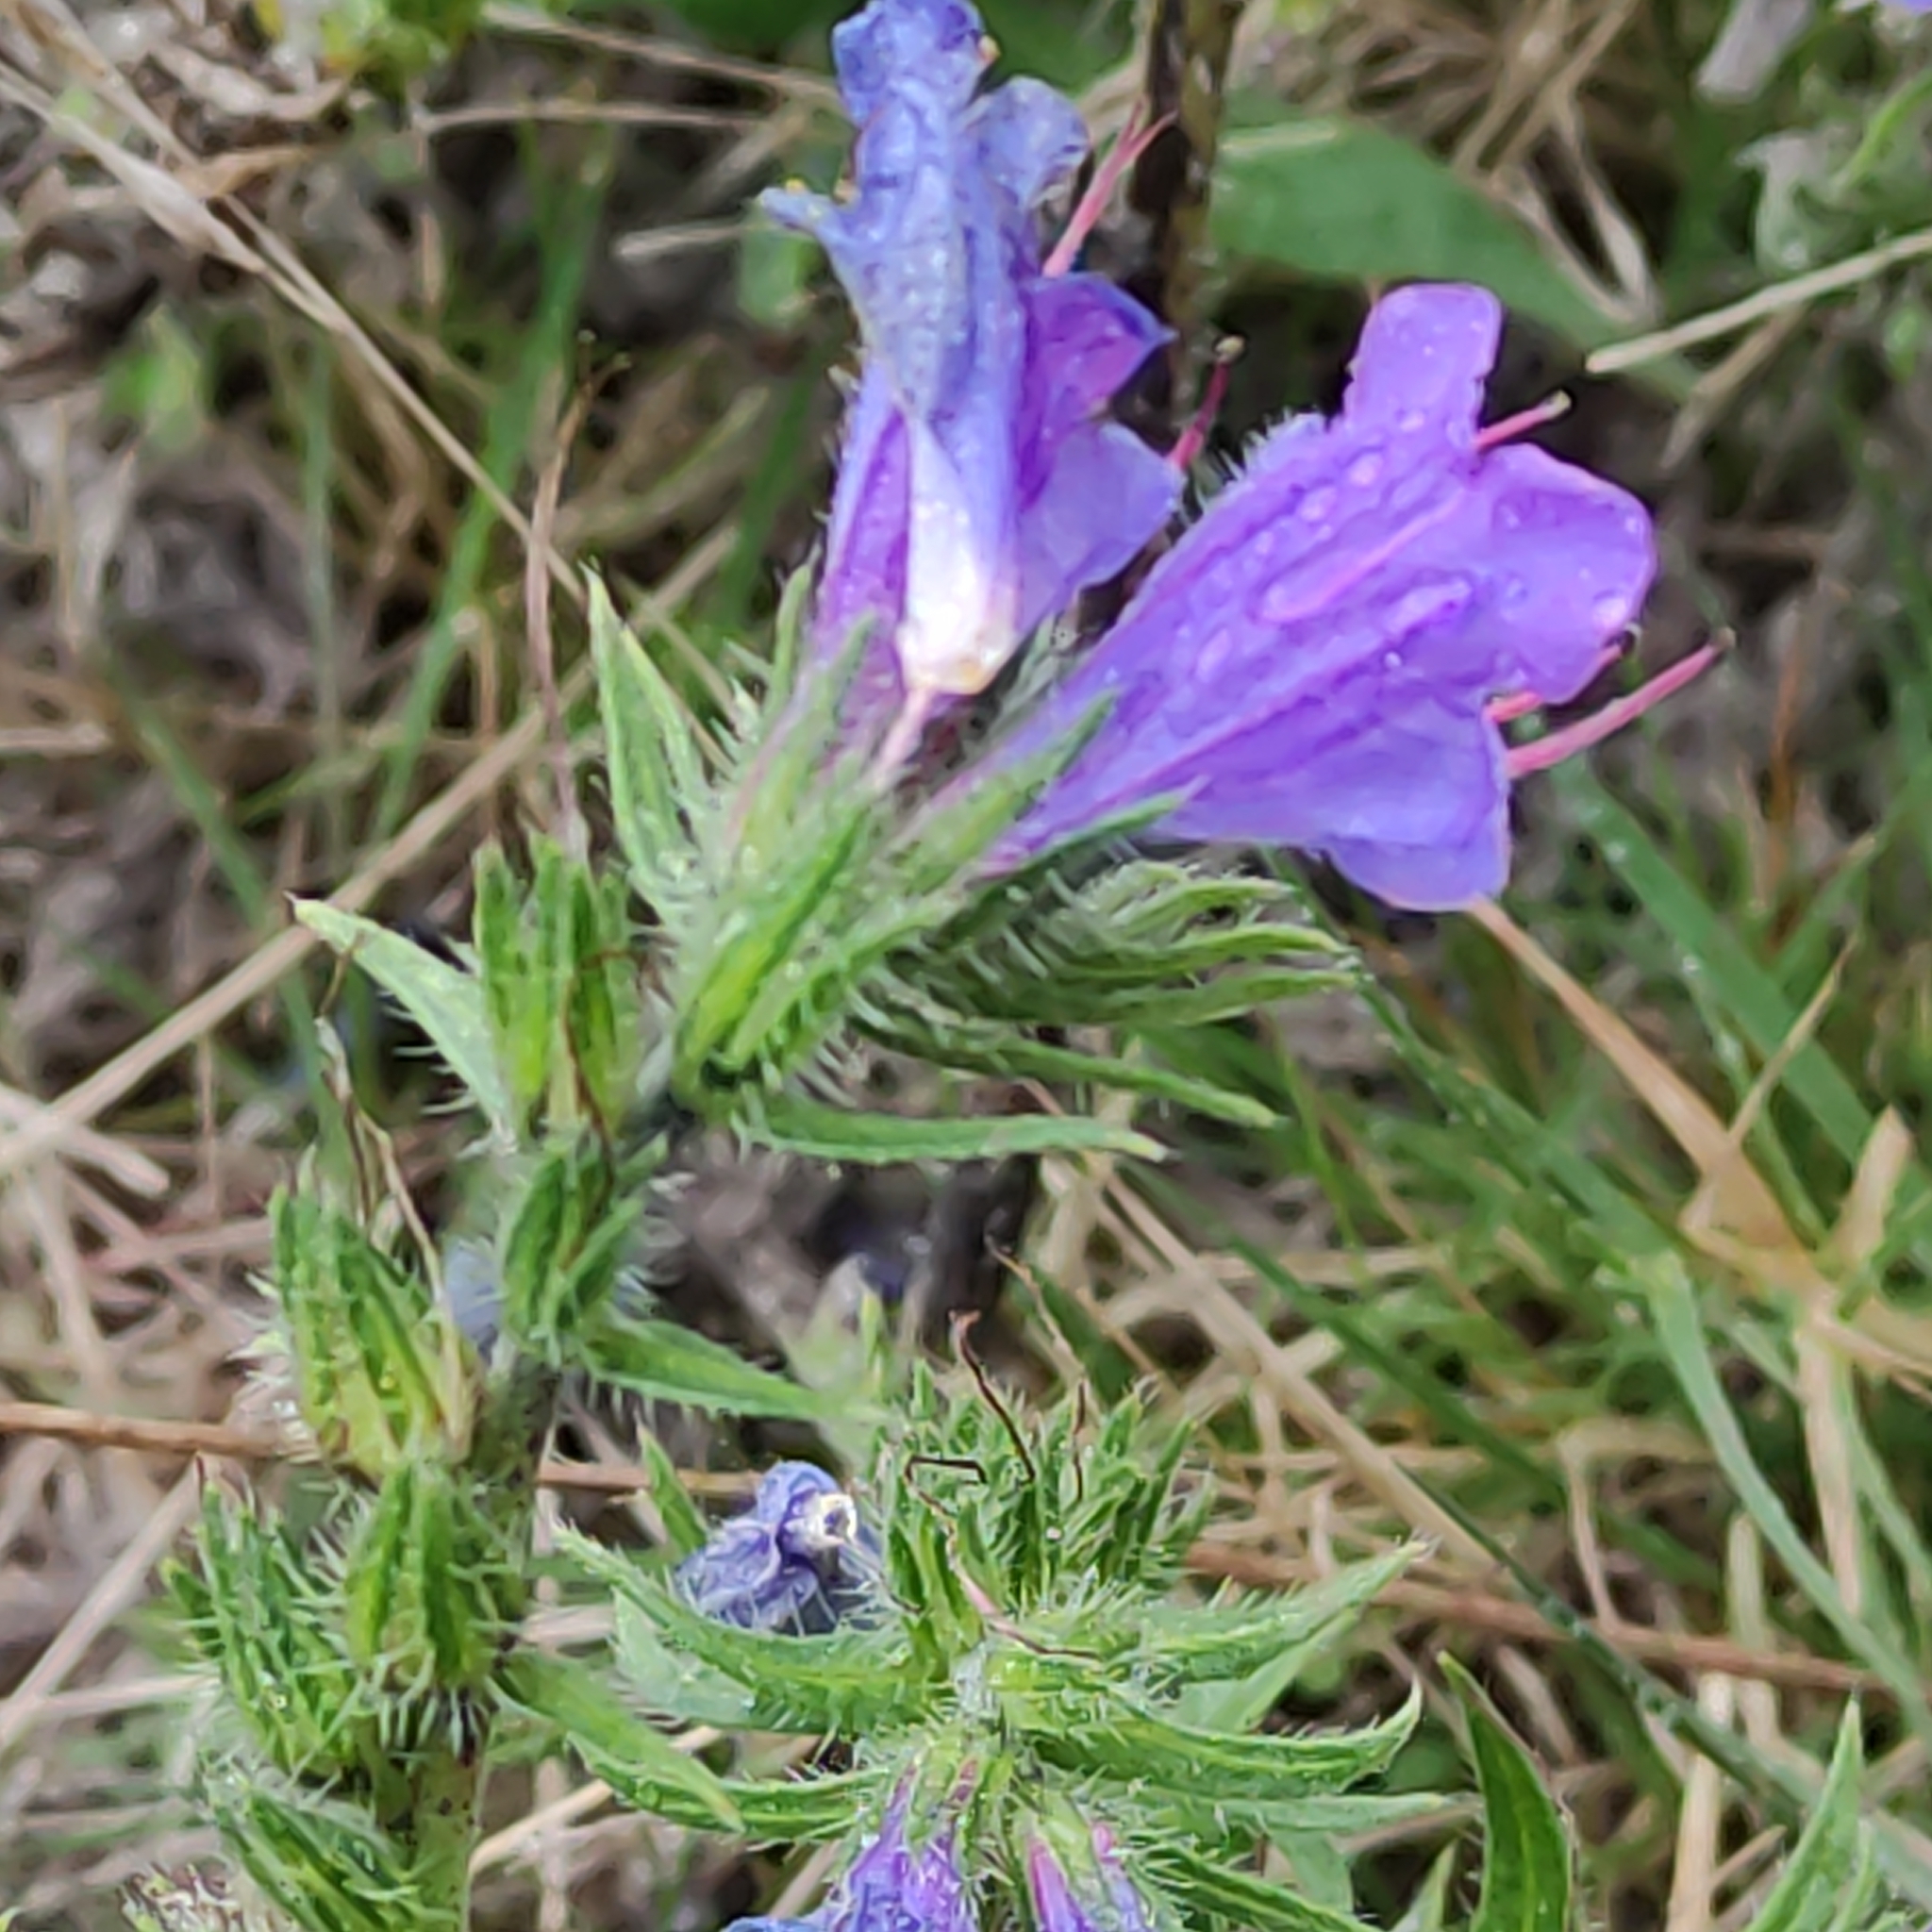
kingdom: Plantae
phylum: Tracheophyta
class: Magnoliopsida
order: Boraginales
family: Boraginaceae
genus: Echium
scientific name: Echium vulgare
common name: Common viper's bugloss
